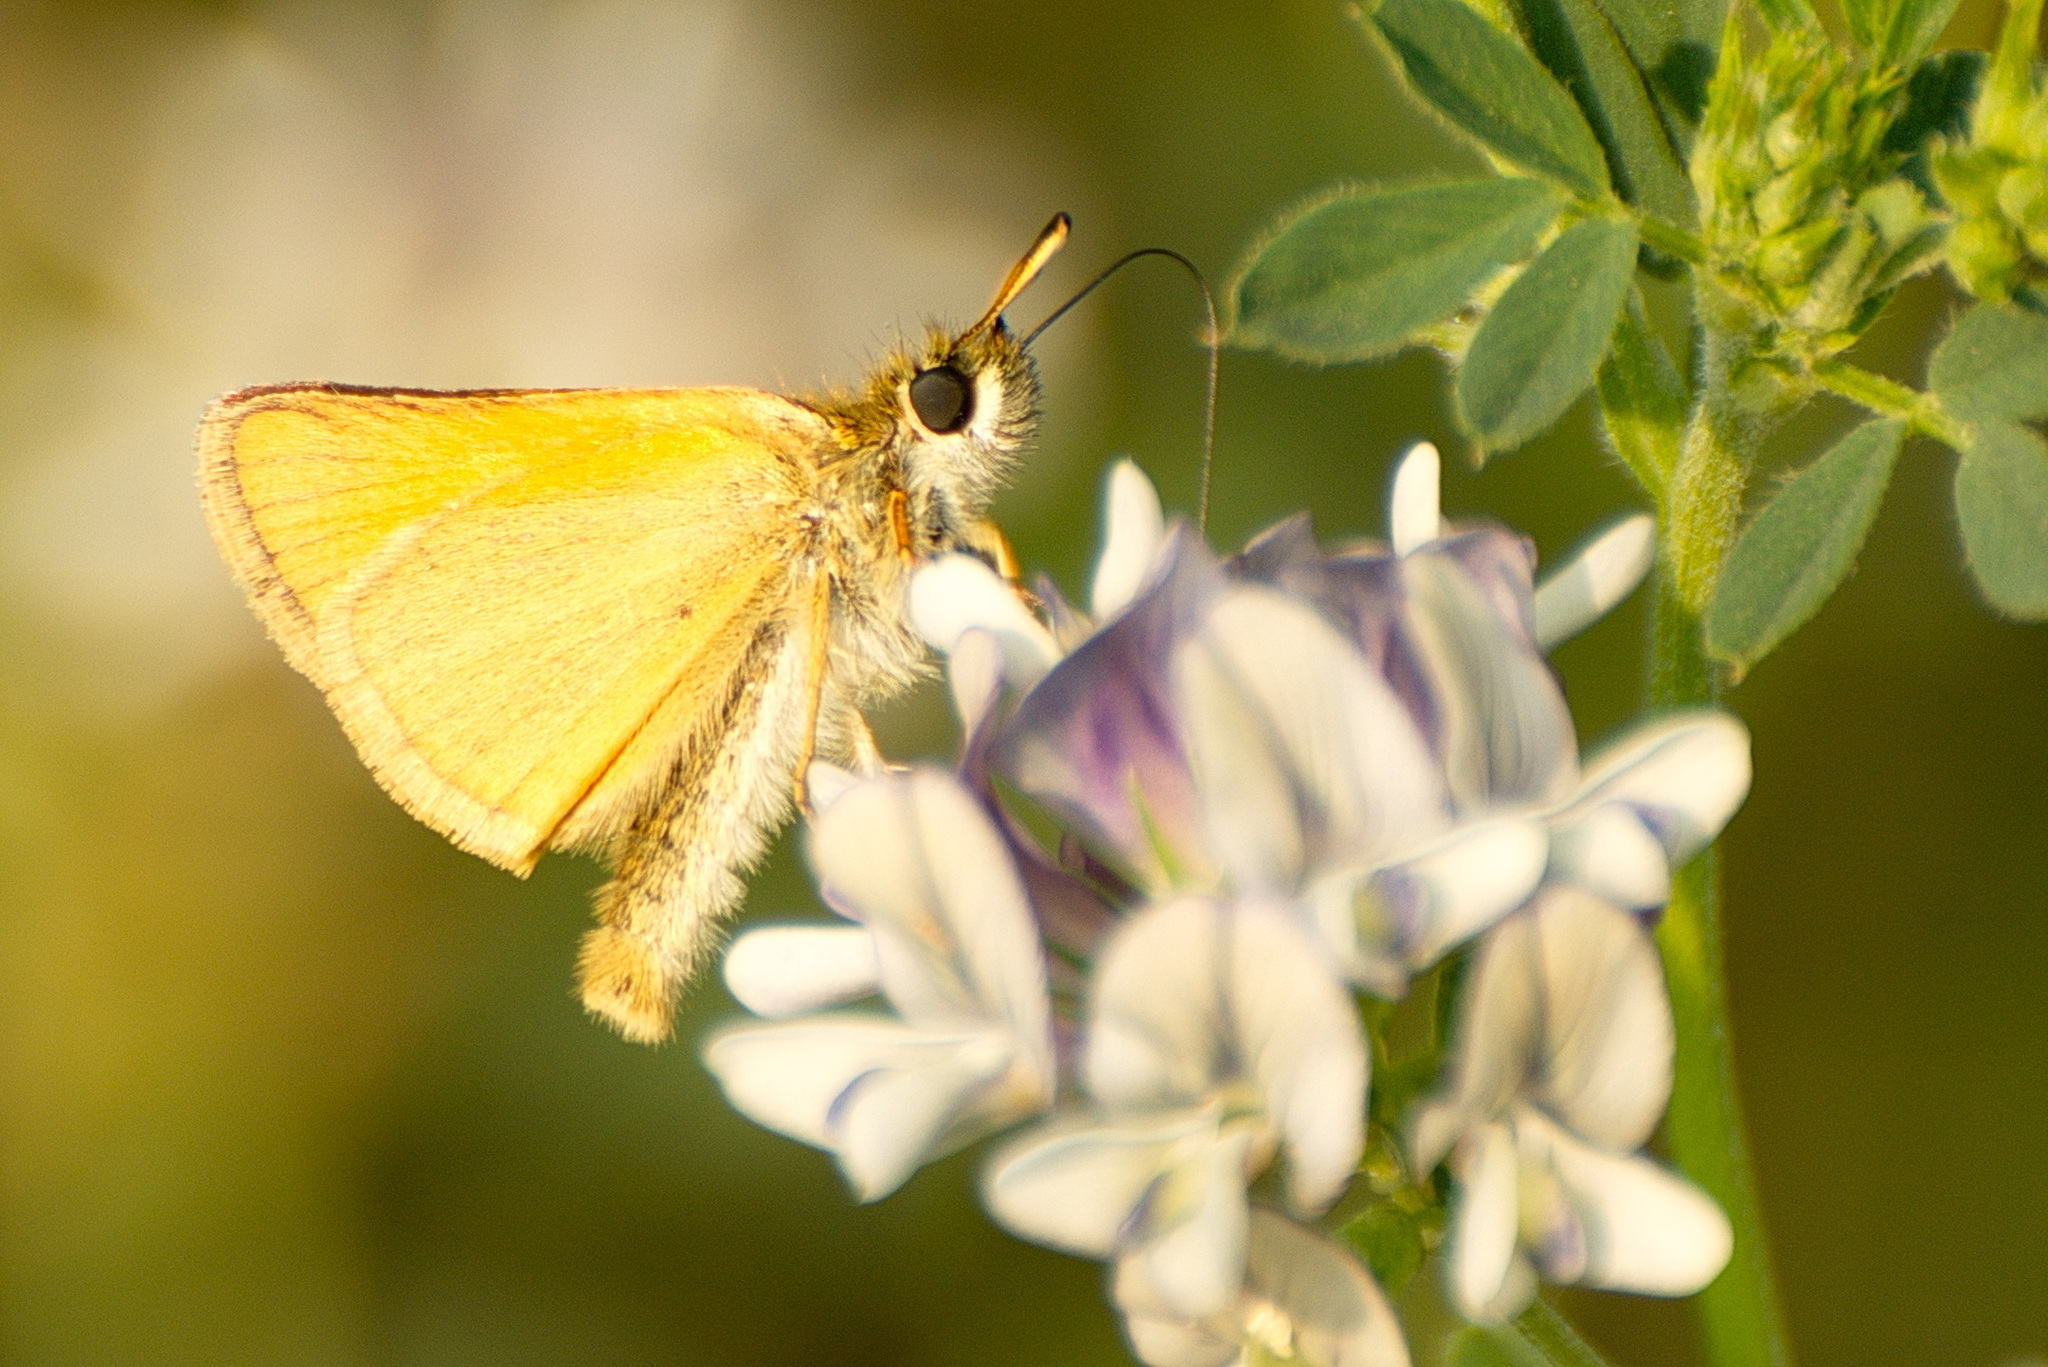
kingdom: Animalia
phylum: Arthropoda
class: Insecta
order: Lepidoptera
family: Hesperiidae
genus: Thymelicus
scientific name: Thymelicus lineola
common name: Essex skipper
